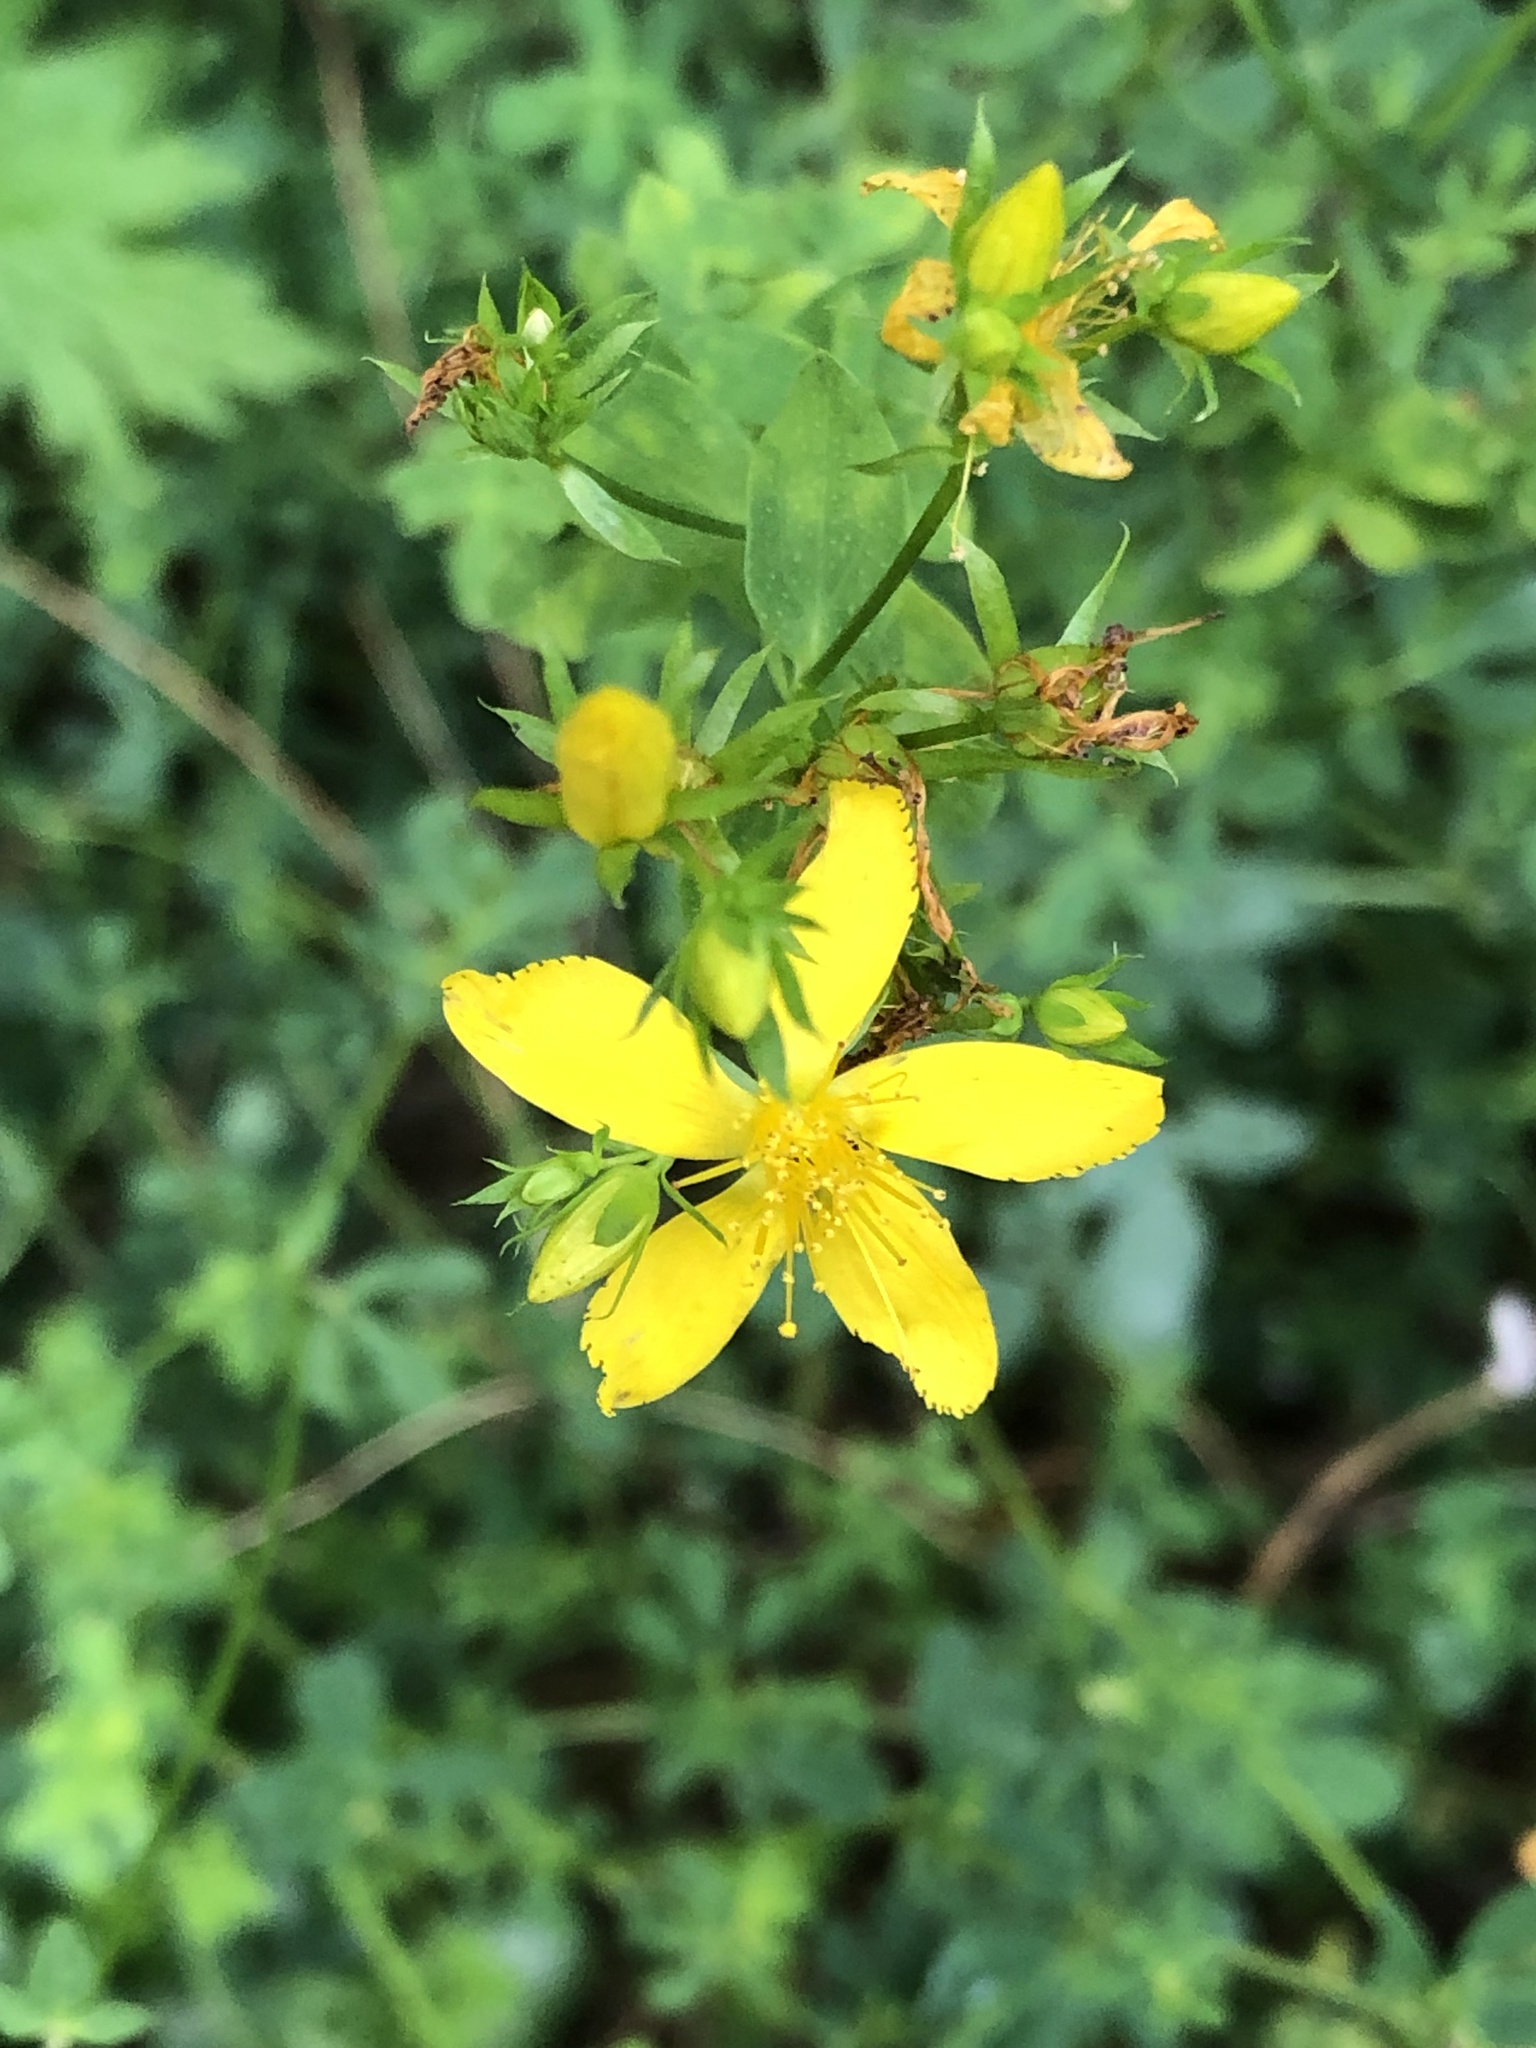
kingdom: Plantae
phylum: Tracheophyta
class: Magnoliopsida
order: Malpighiales
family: Hypericaceae
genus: Hypericum
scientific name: Hypericum perforatum
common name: Common st. johnswort
